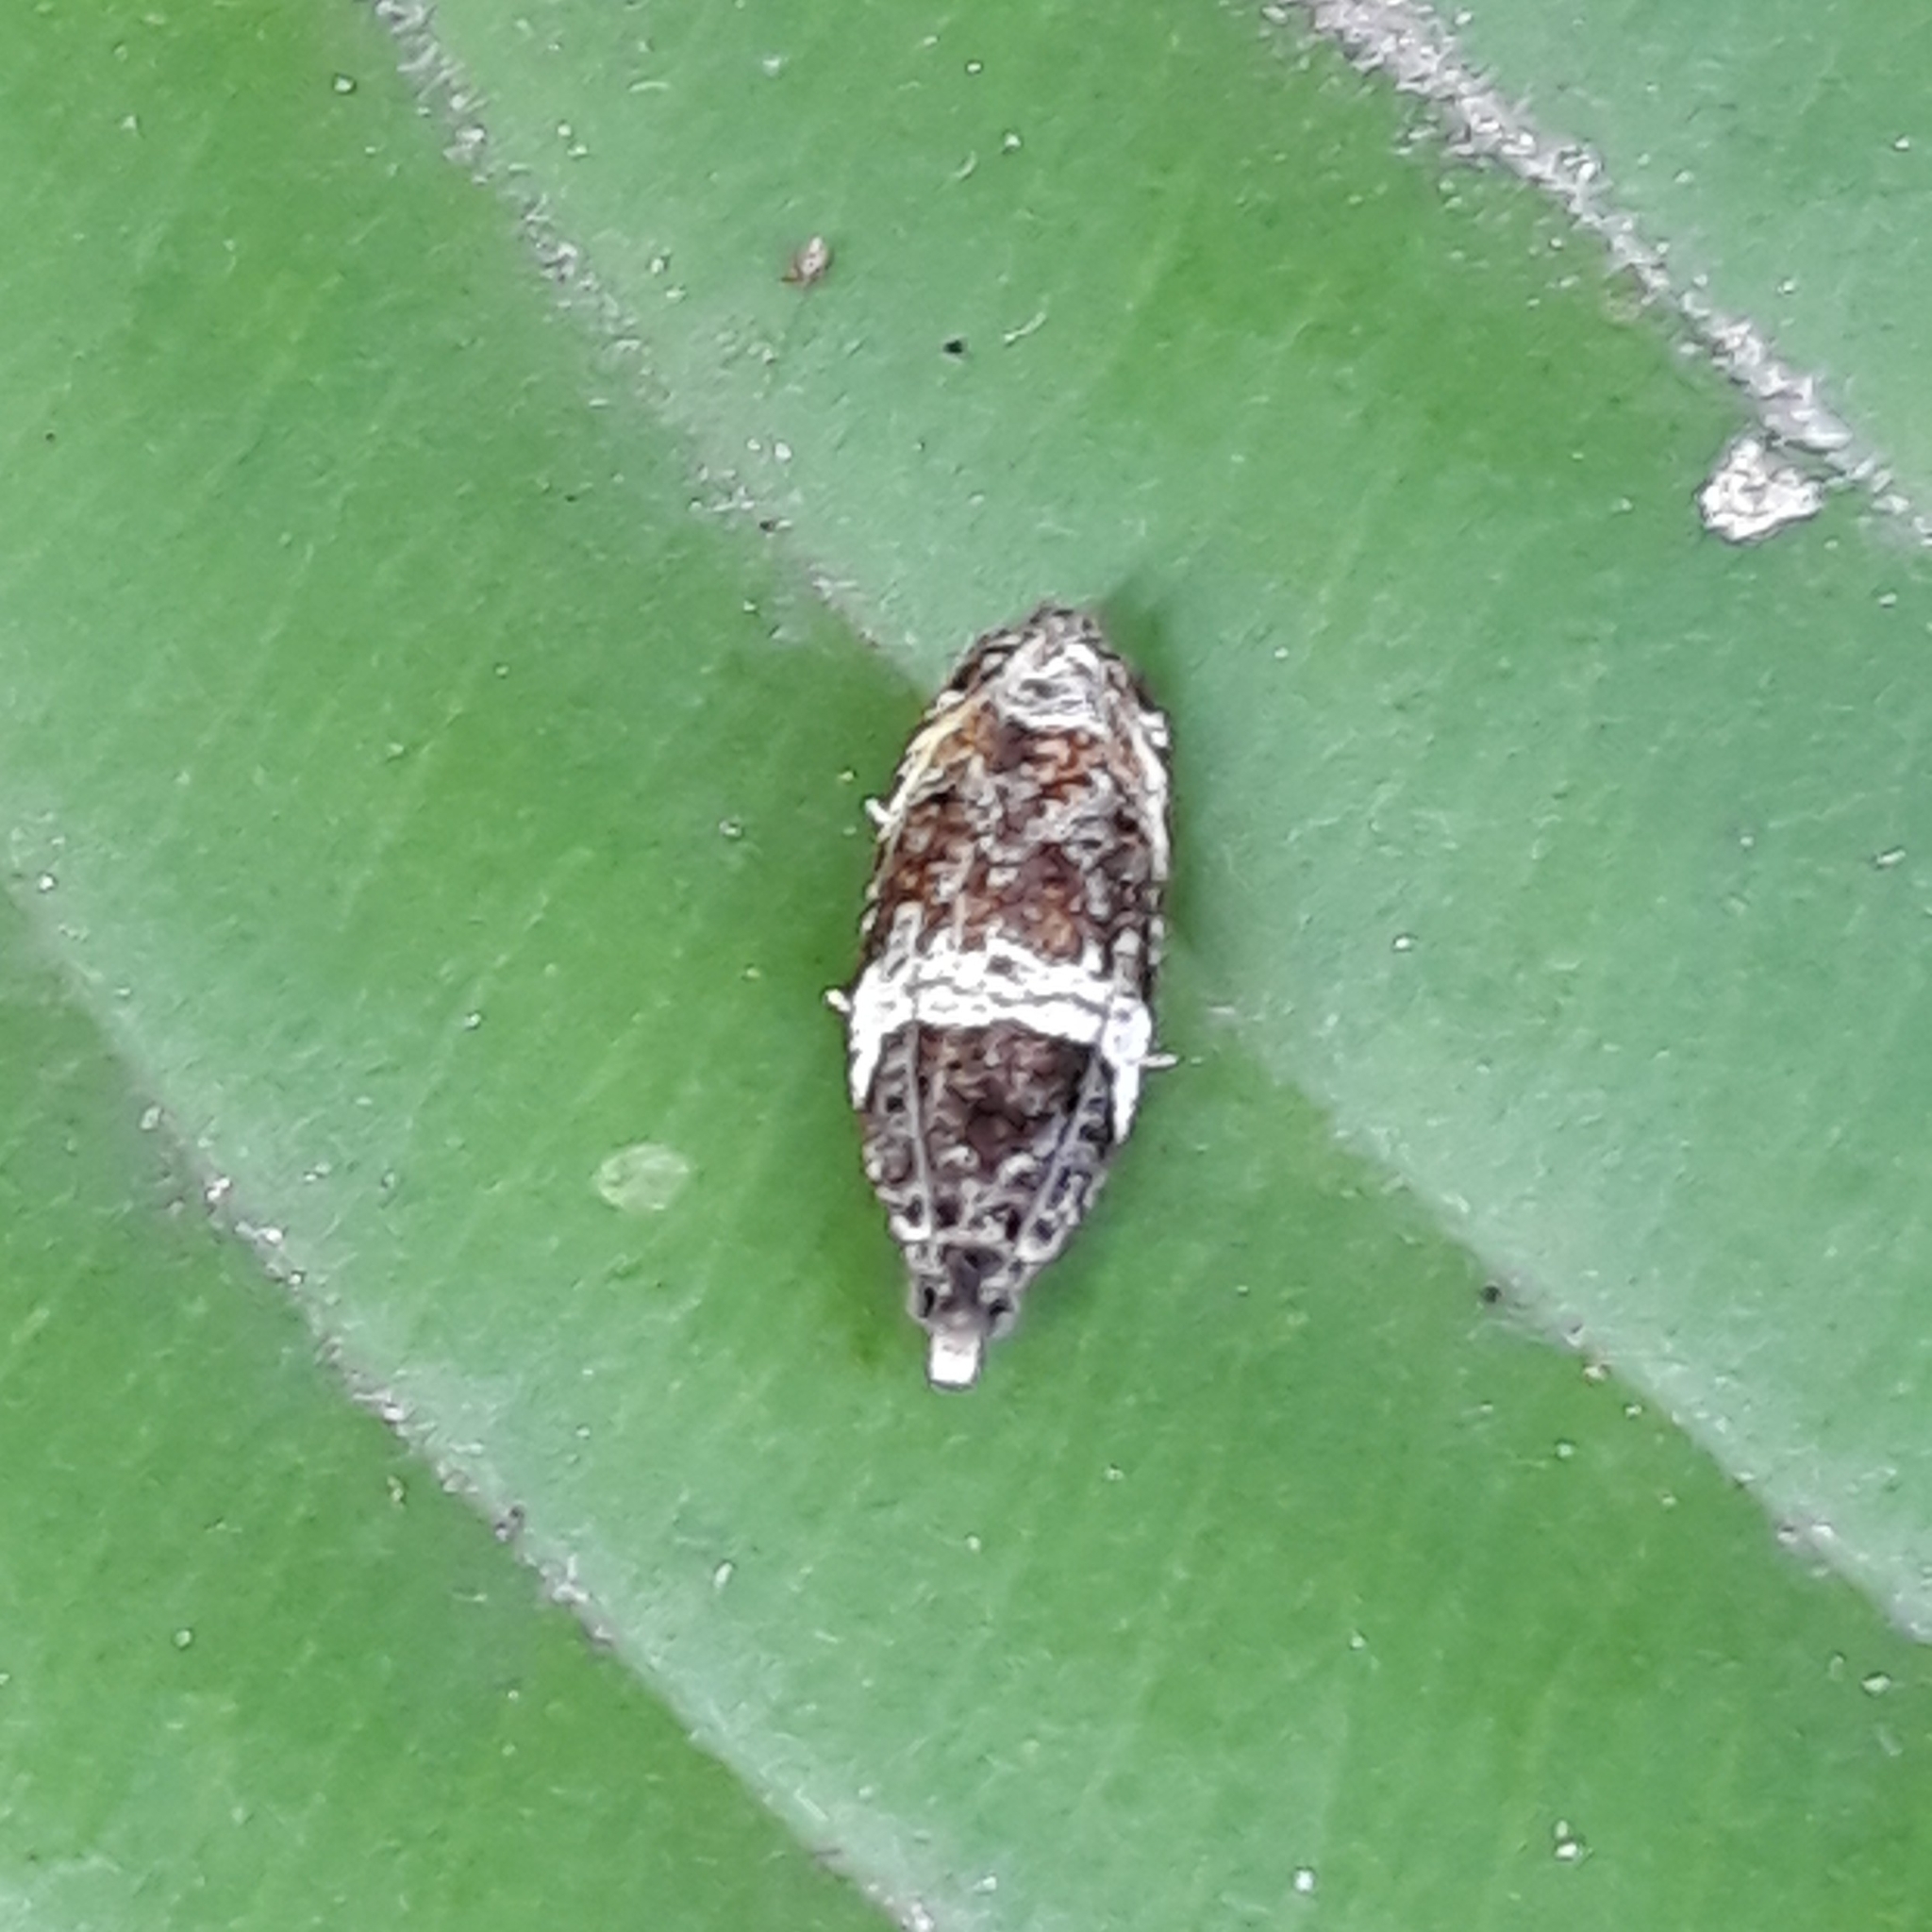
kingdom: Animalia
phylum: Arthropoda
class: Insecta
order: Lepidoptera
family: Tortricidae
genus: Olethreutes
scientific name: Olethreutes fasciatana
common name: Banded olethreutes moth
